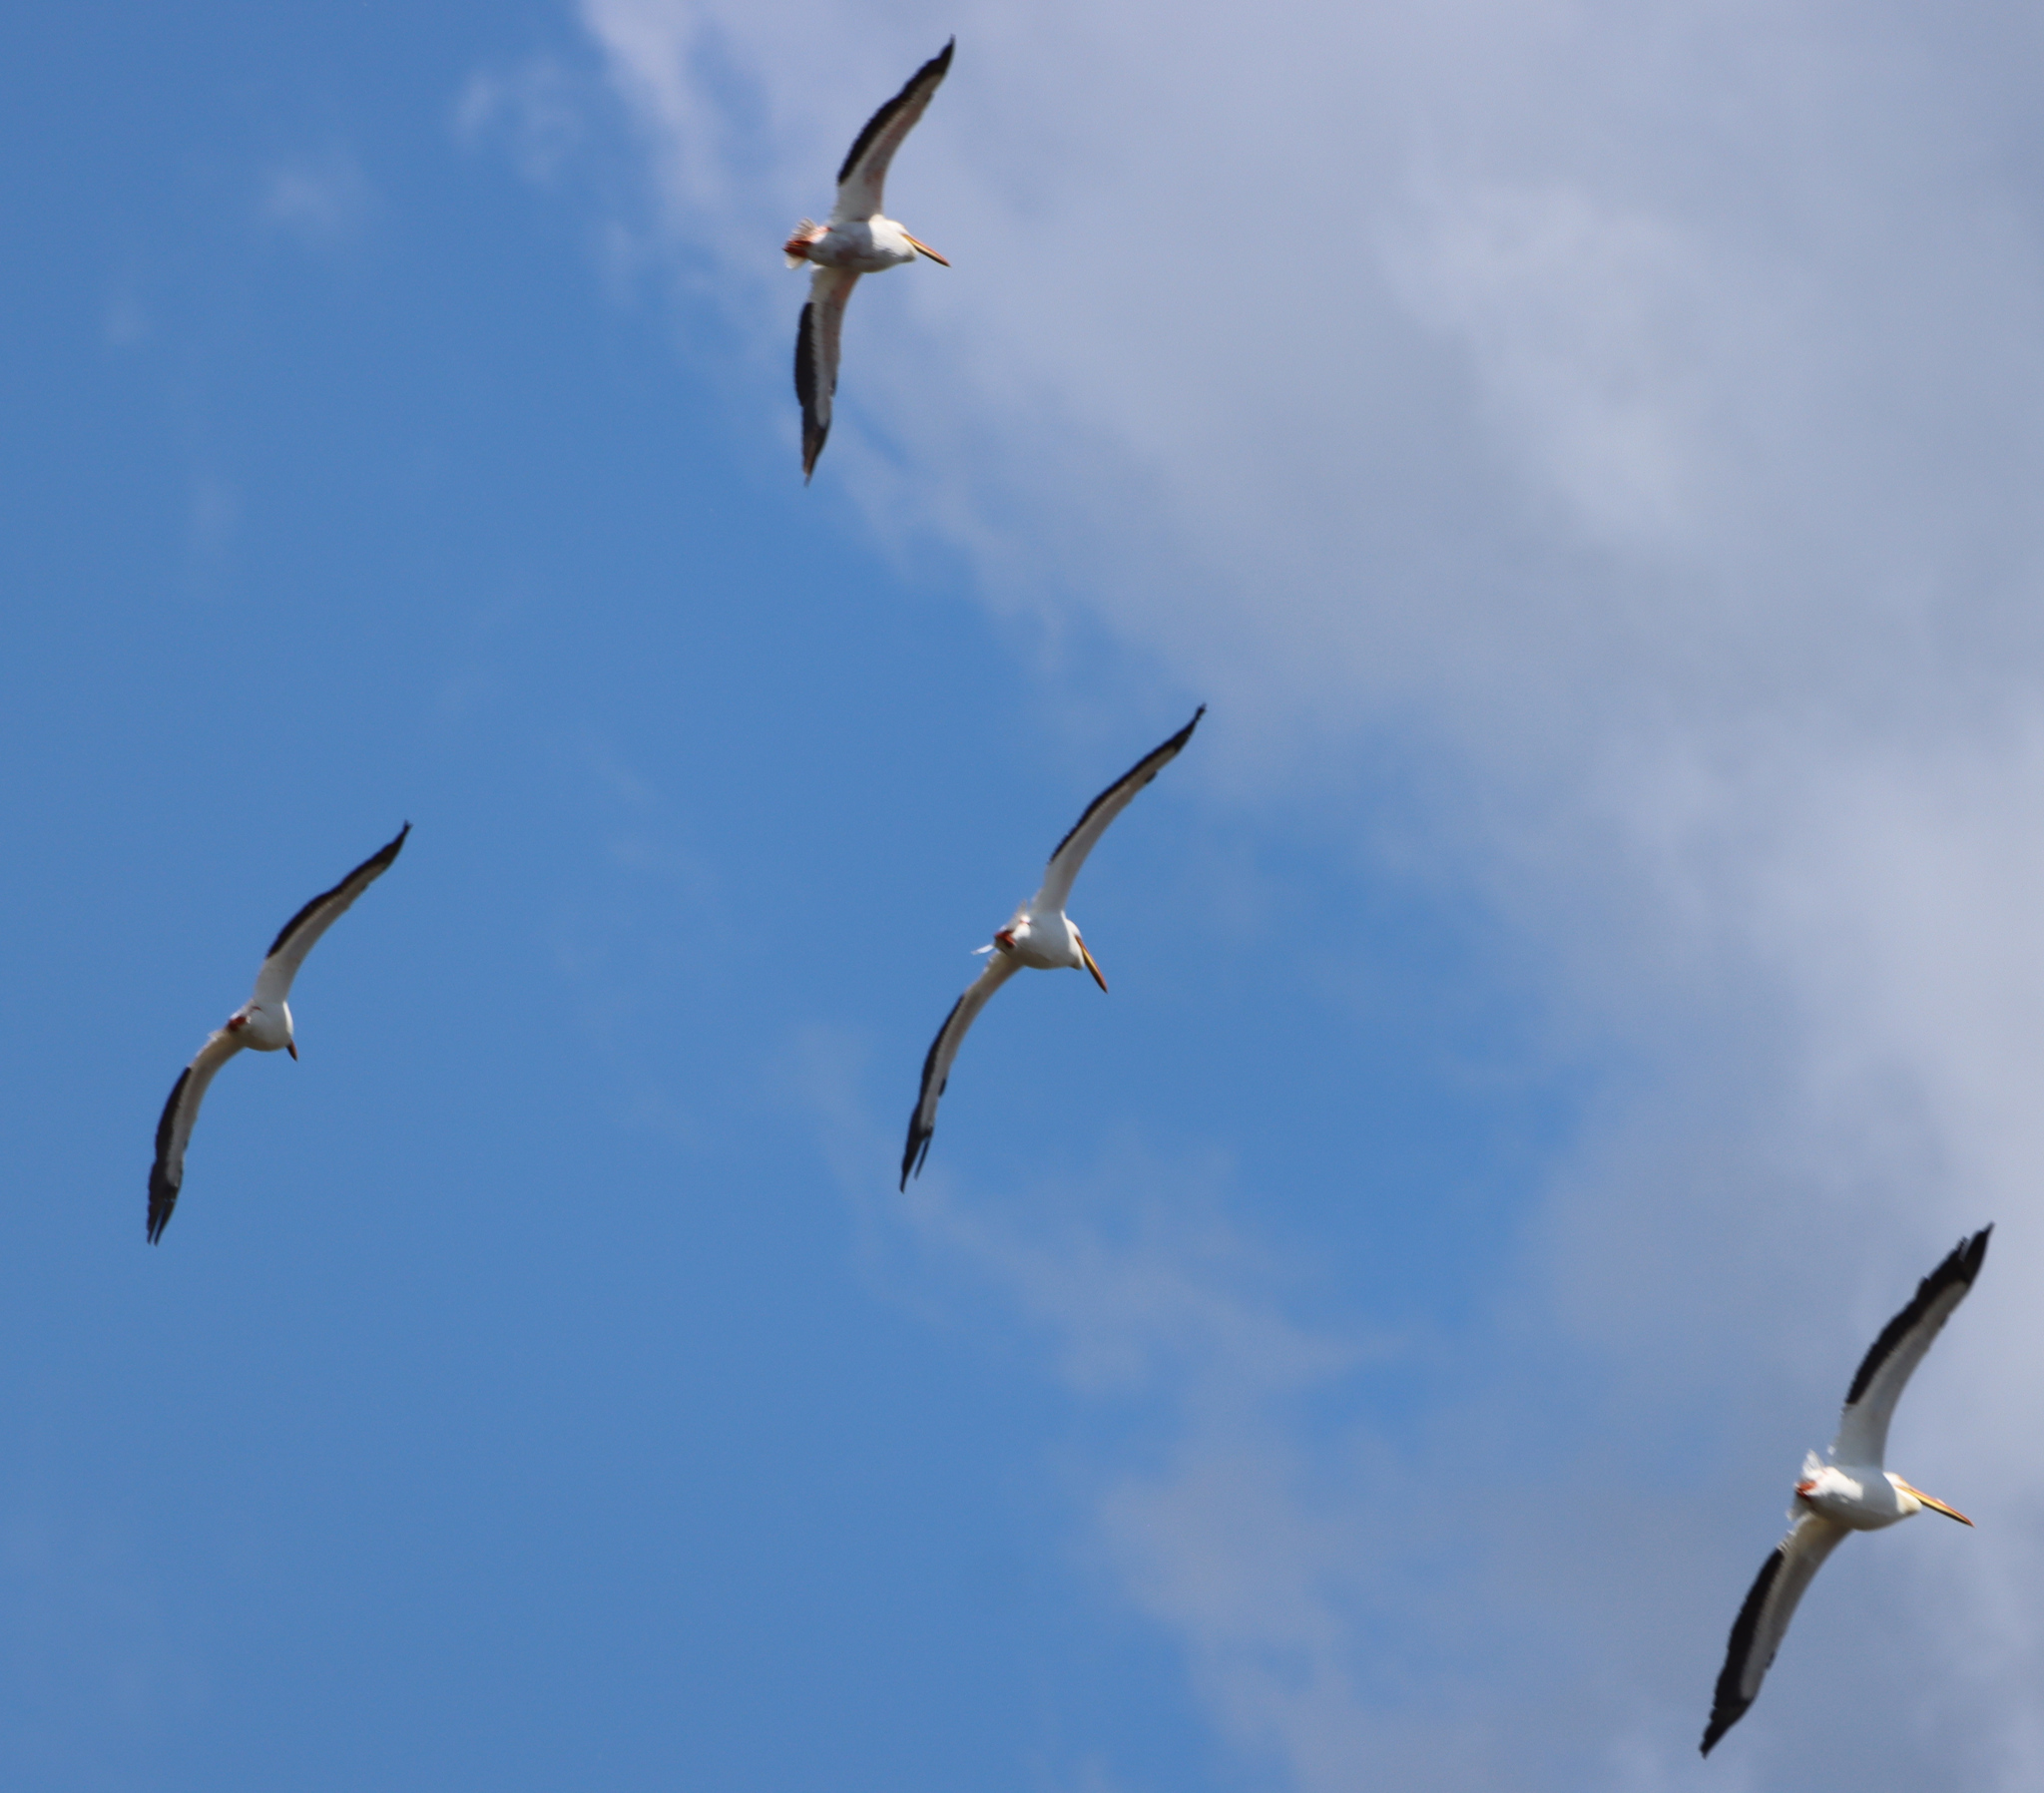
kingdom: Animalia
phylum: Chordata
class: Aves
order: Pelecaniformes
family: Pelecanidae
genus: Pelecanus
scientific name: Pelecanus erythrorhynchos
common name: American white pelican
